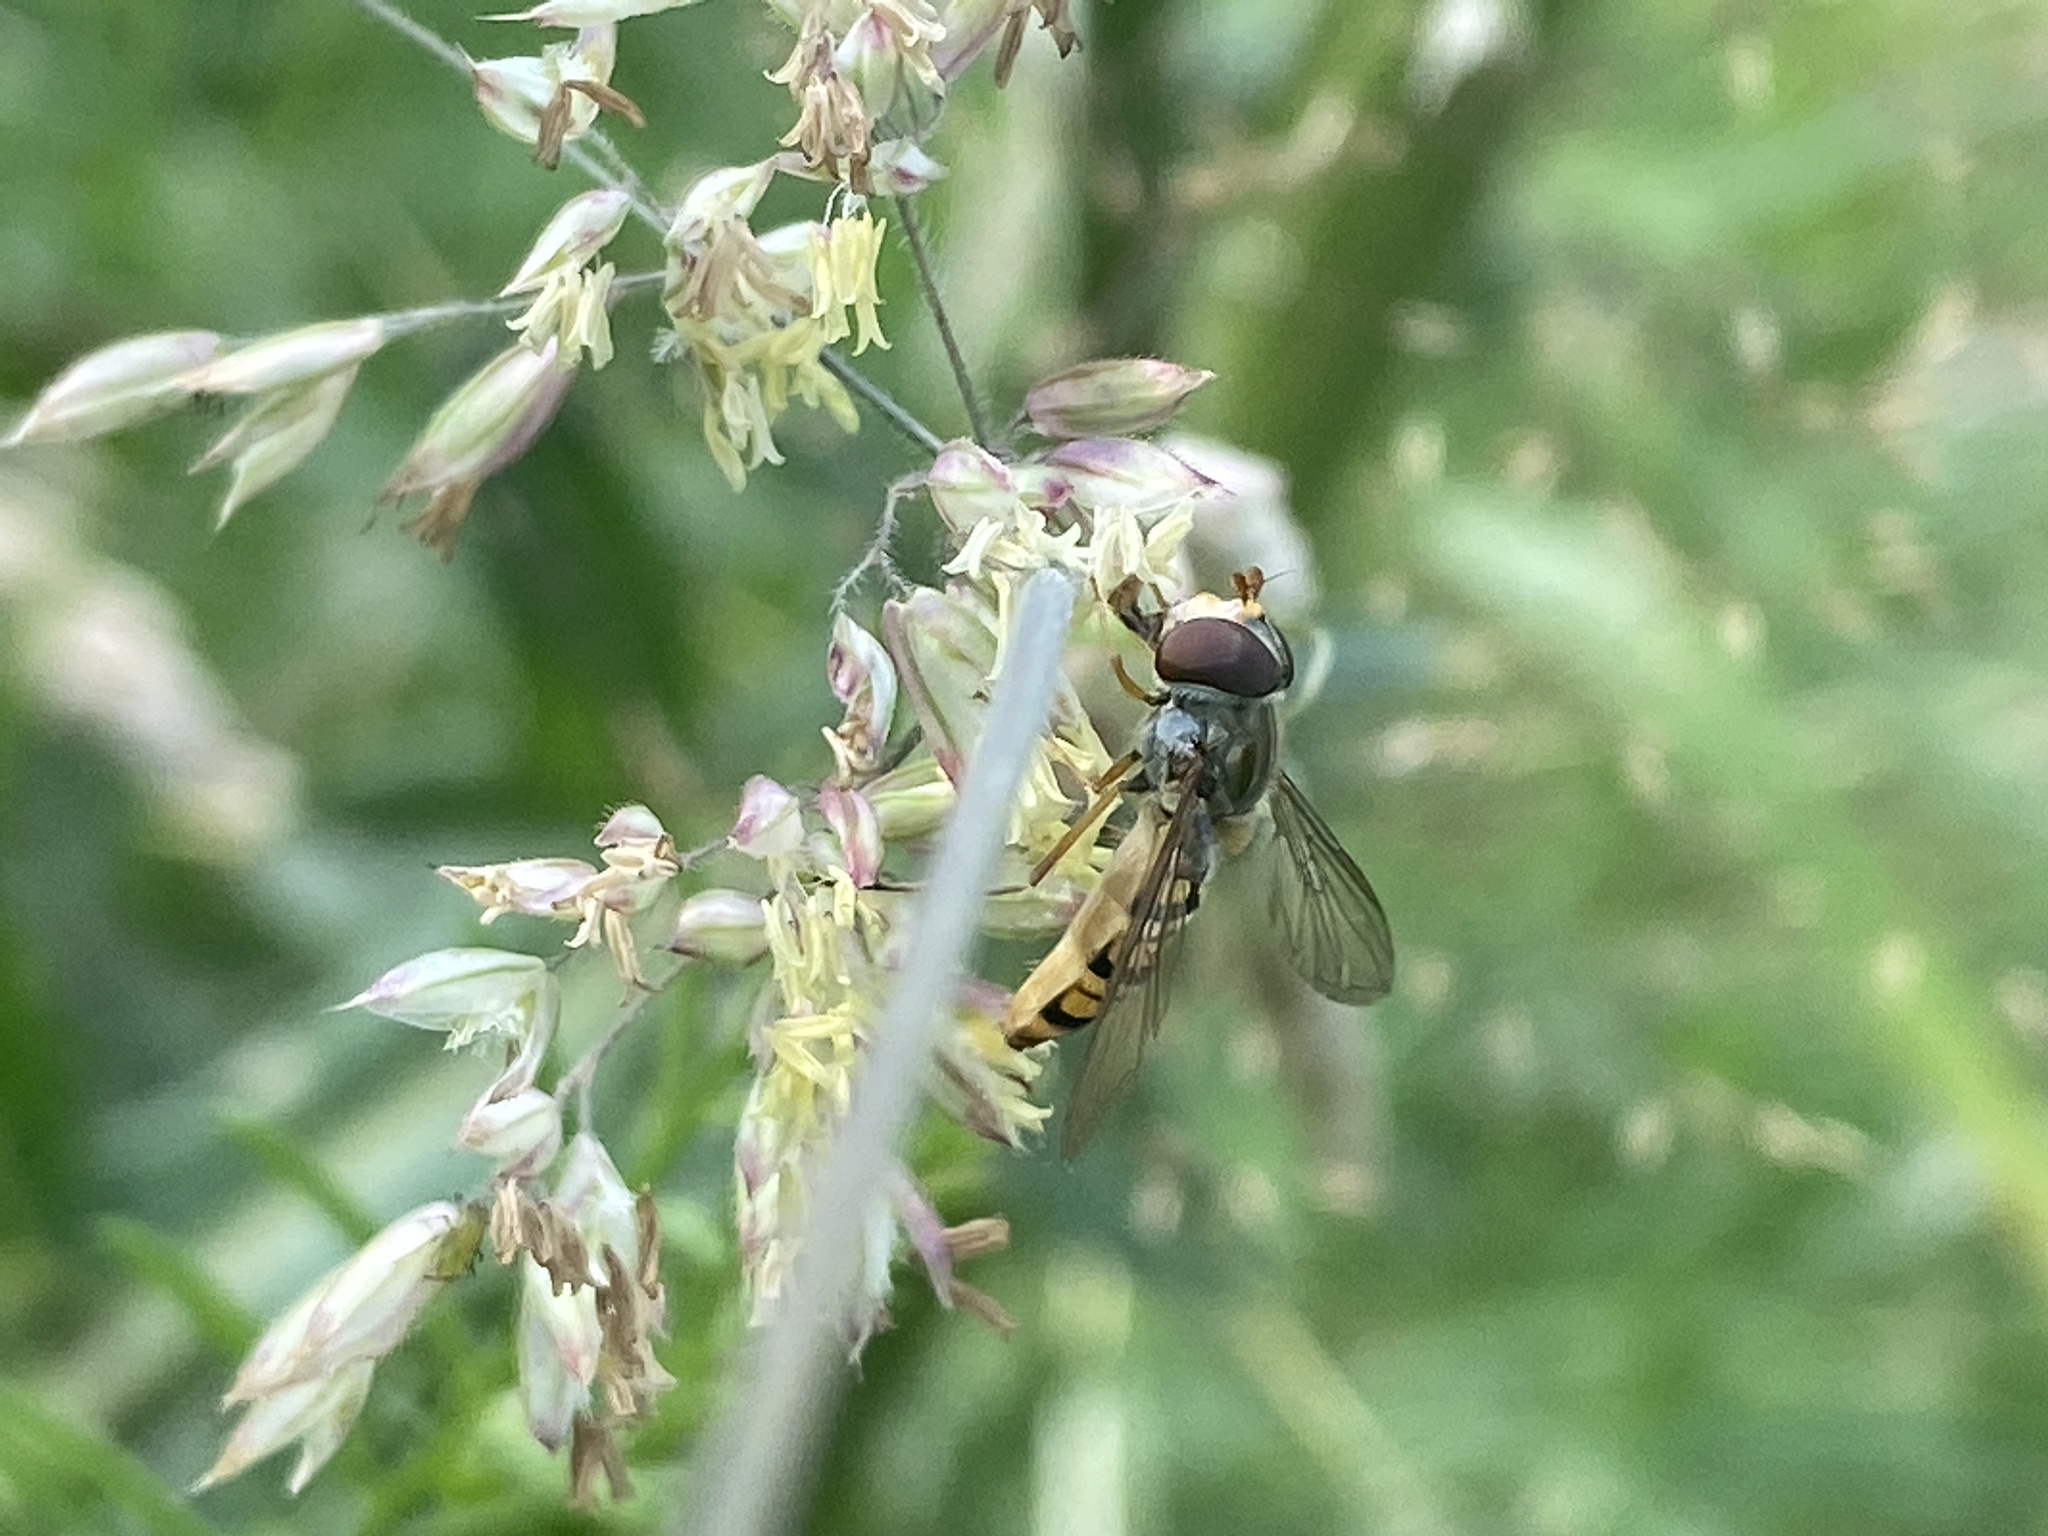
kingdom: Animalia
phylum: Arthropoda
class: Insecta
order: Diptera
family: Syrphidae
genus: Episyrphus
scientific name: Episyrphus balteatus
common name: Marmalade hoverfly
